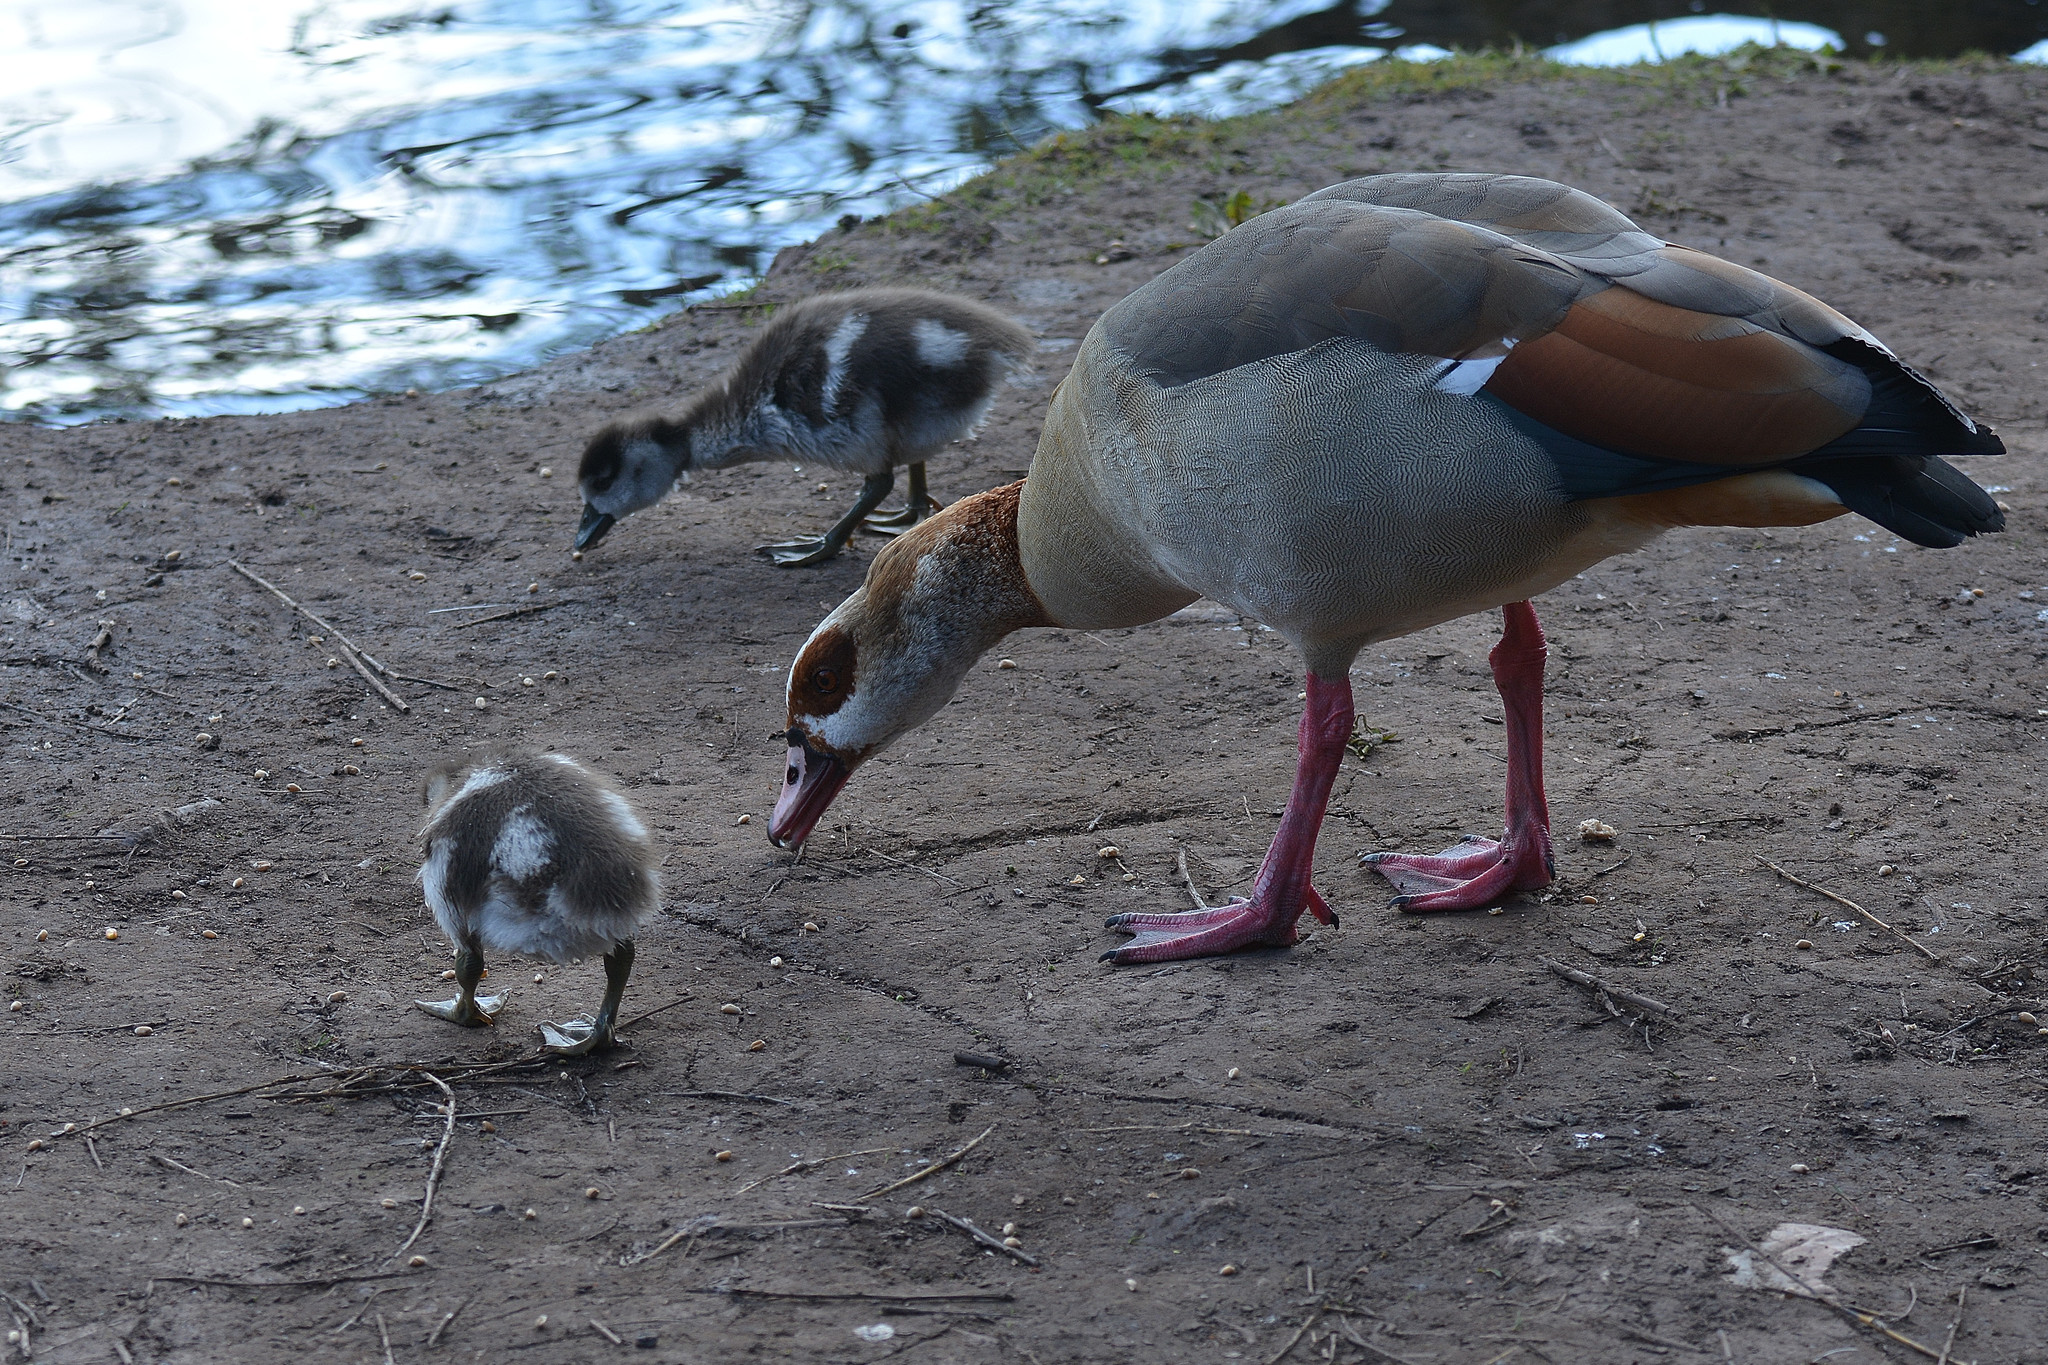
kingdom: Animalia
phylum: Chordata
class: Aves
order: Anseriformes
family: Anatidae
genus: Alopochen
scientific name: Alopochen aegyptiaca
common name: Egyptian goose
